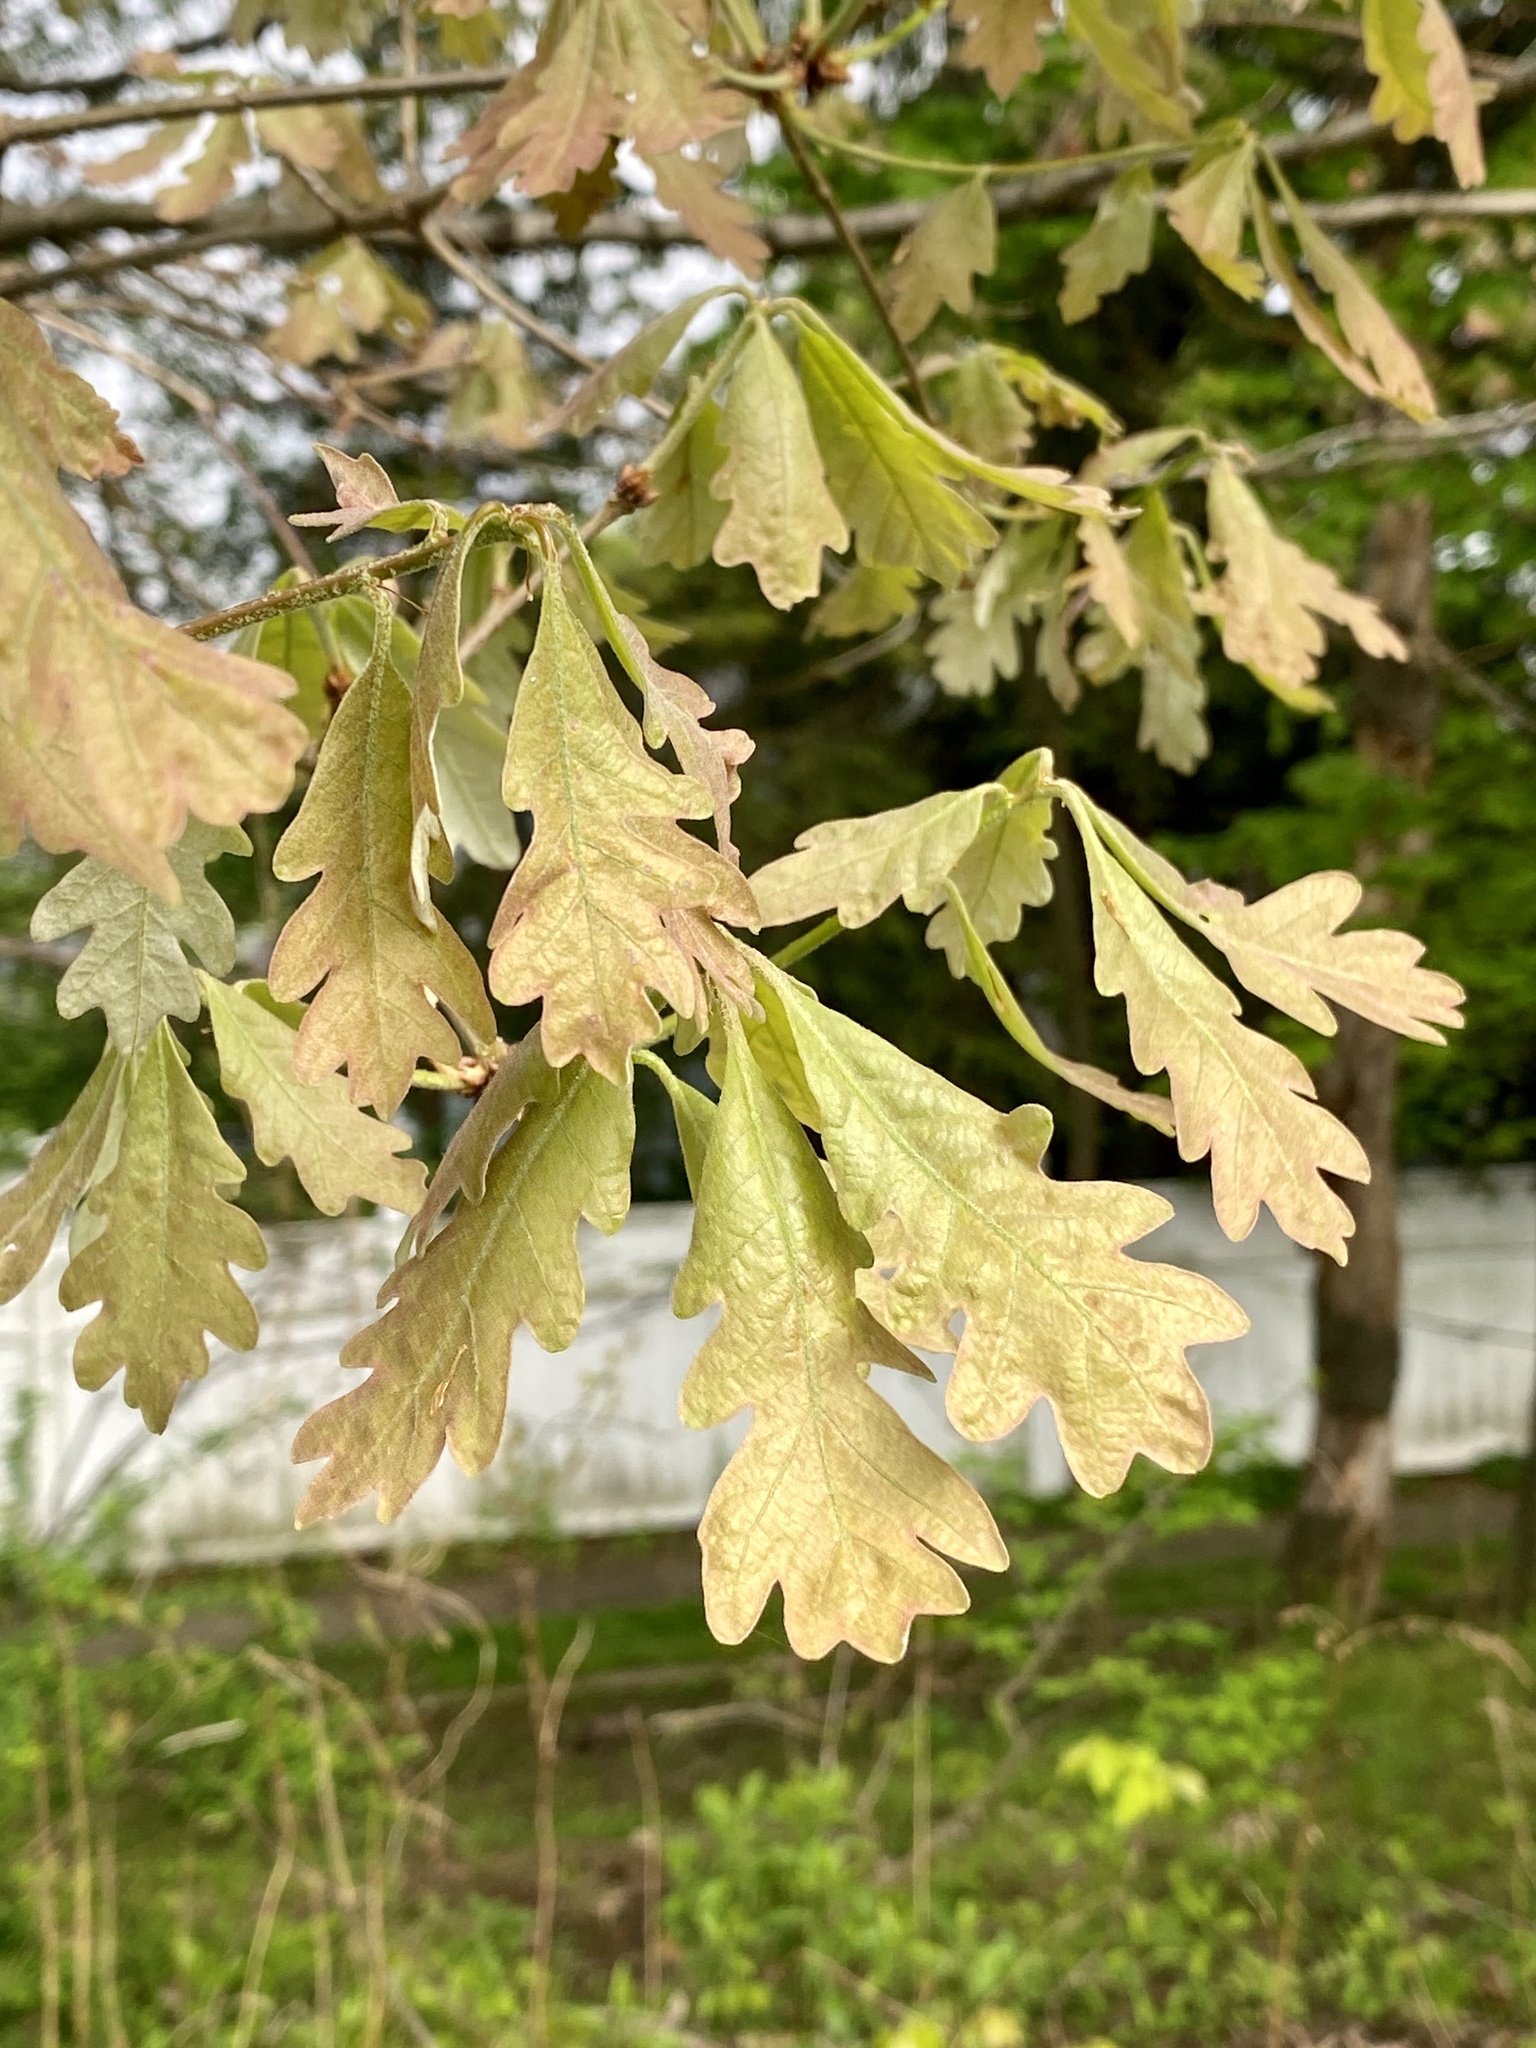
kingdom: Plantae
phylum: Tracheophyta
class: Magnoliopsida
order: Fagales
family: Fagaceae
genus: Quercus
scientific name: Quercus alba
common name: White oak
